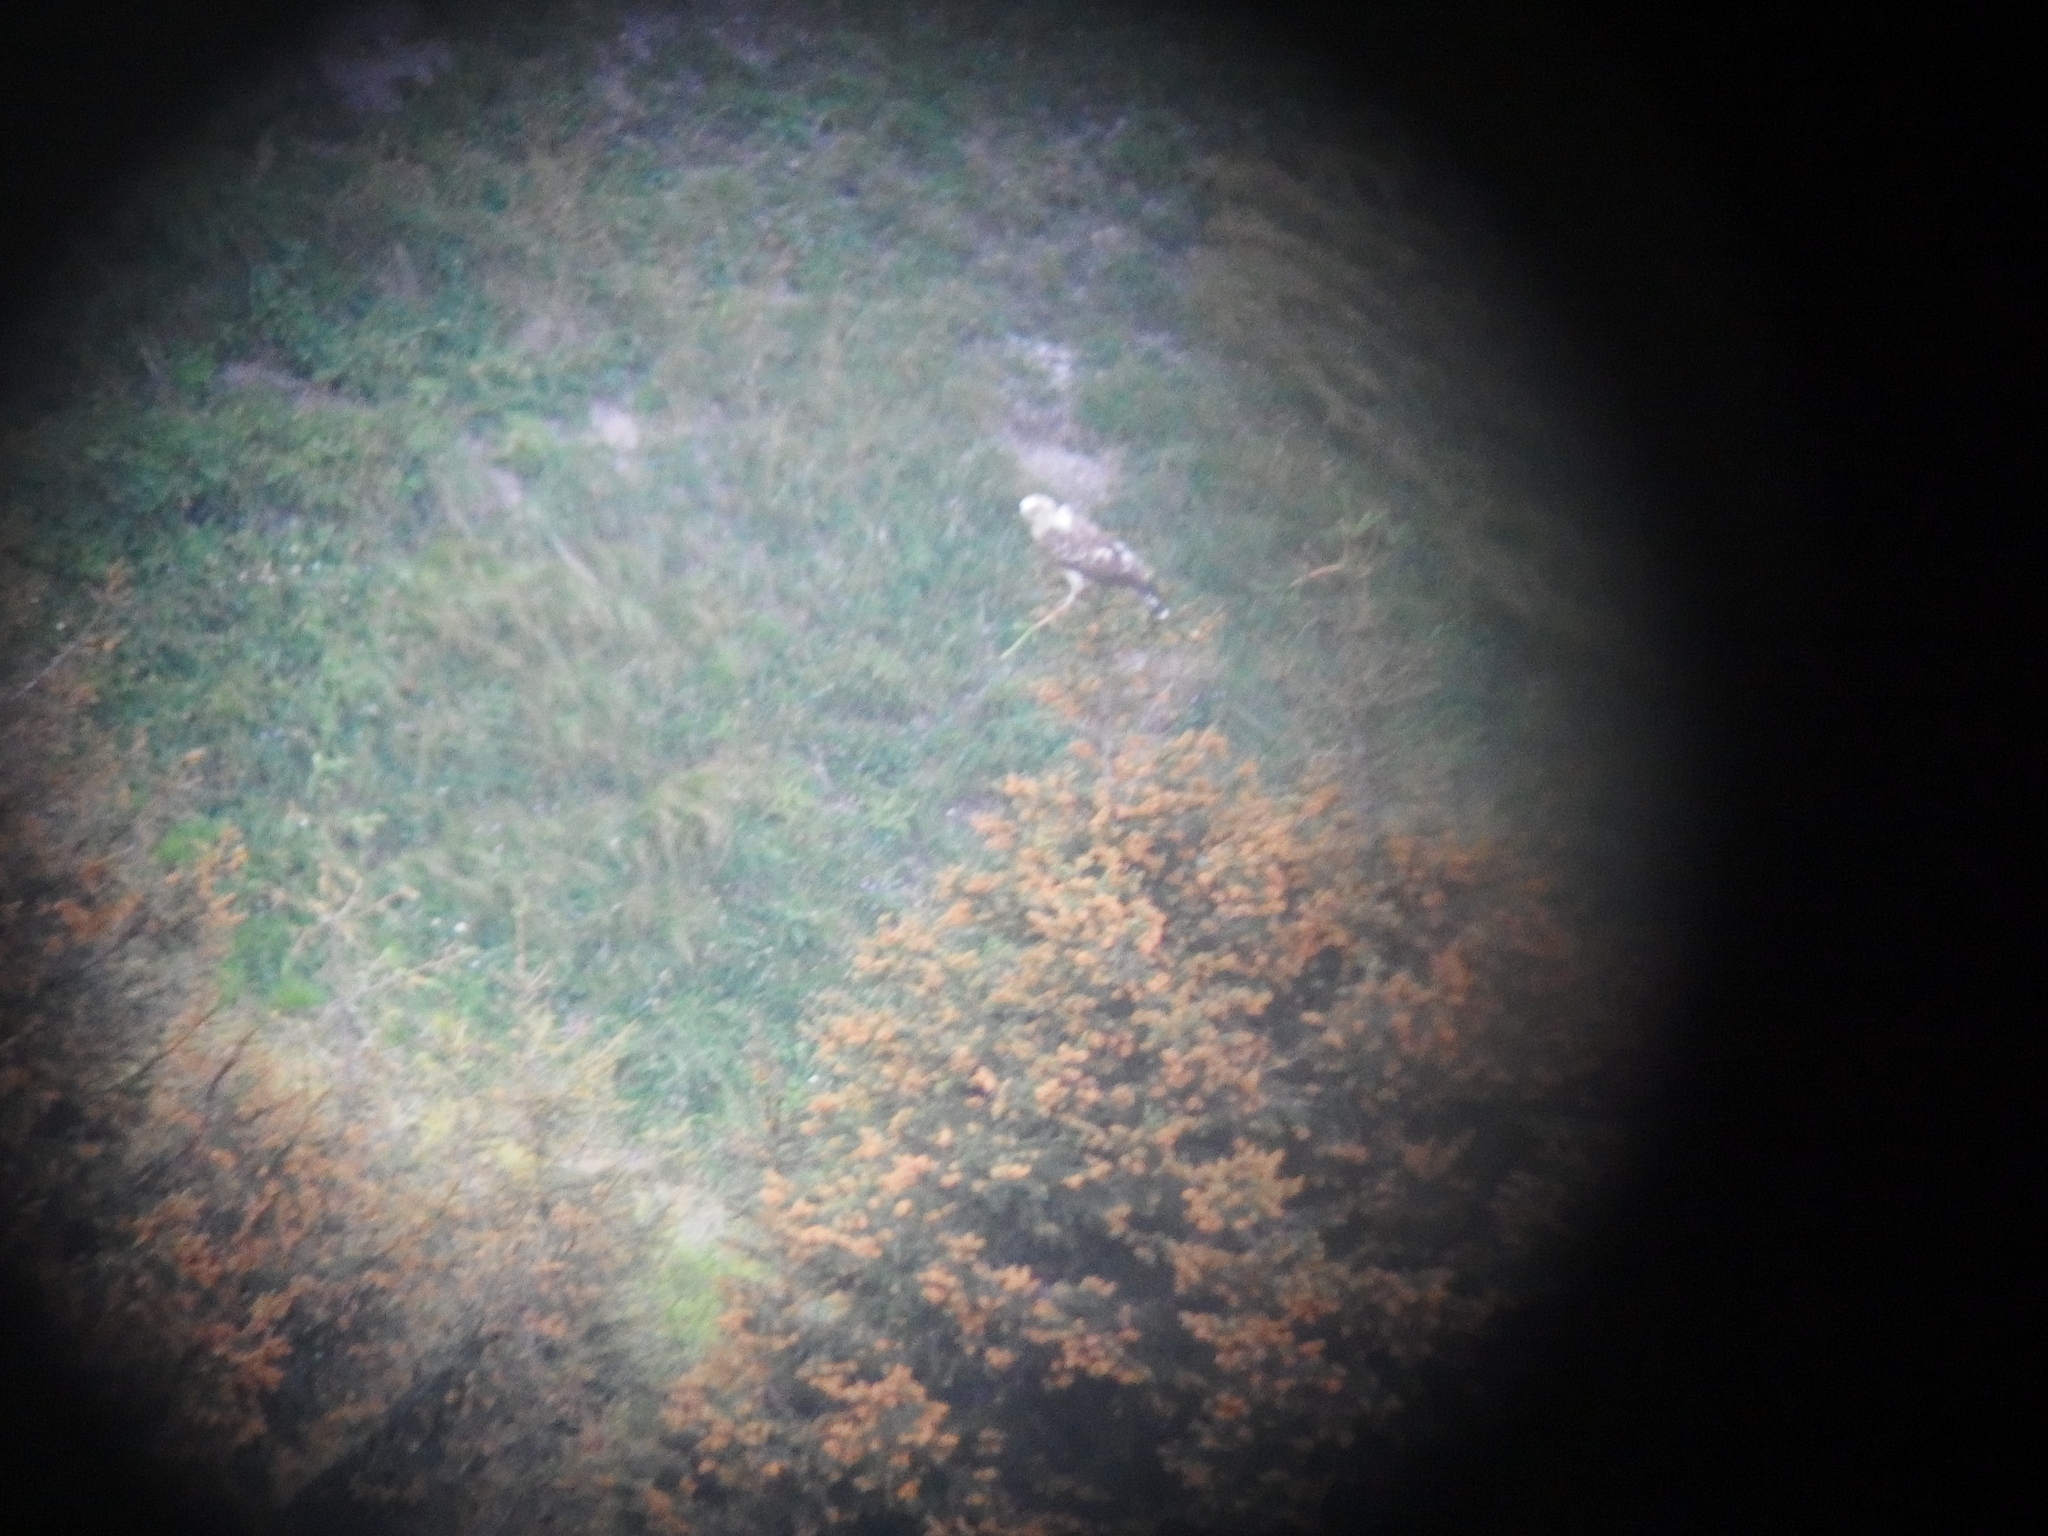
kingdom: Animalia
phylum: Chordata
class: Aves
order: Accipitriformes
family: Accipitridae
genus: Circaetus
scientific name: Circaetus gallicus
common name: Short-toed snake eagle
